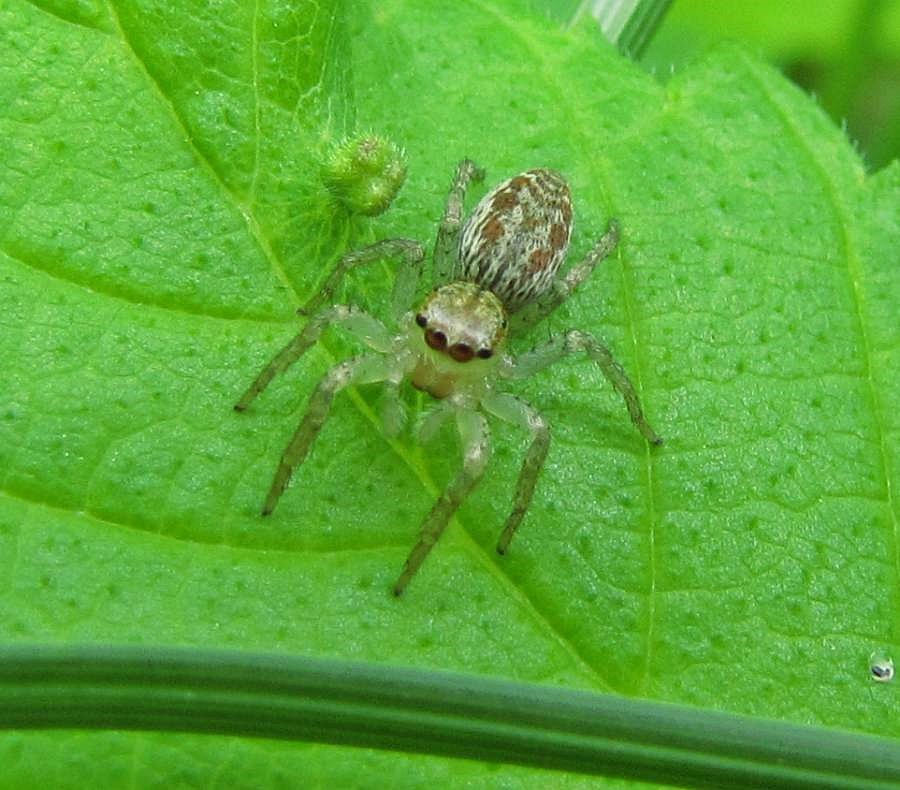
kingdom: Animalia
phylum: Arthropoda
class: Arachnida
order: Araneae
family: Salticidae
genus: Maevia
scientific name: Maevia inclemens
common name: Dimorphic jumper
